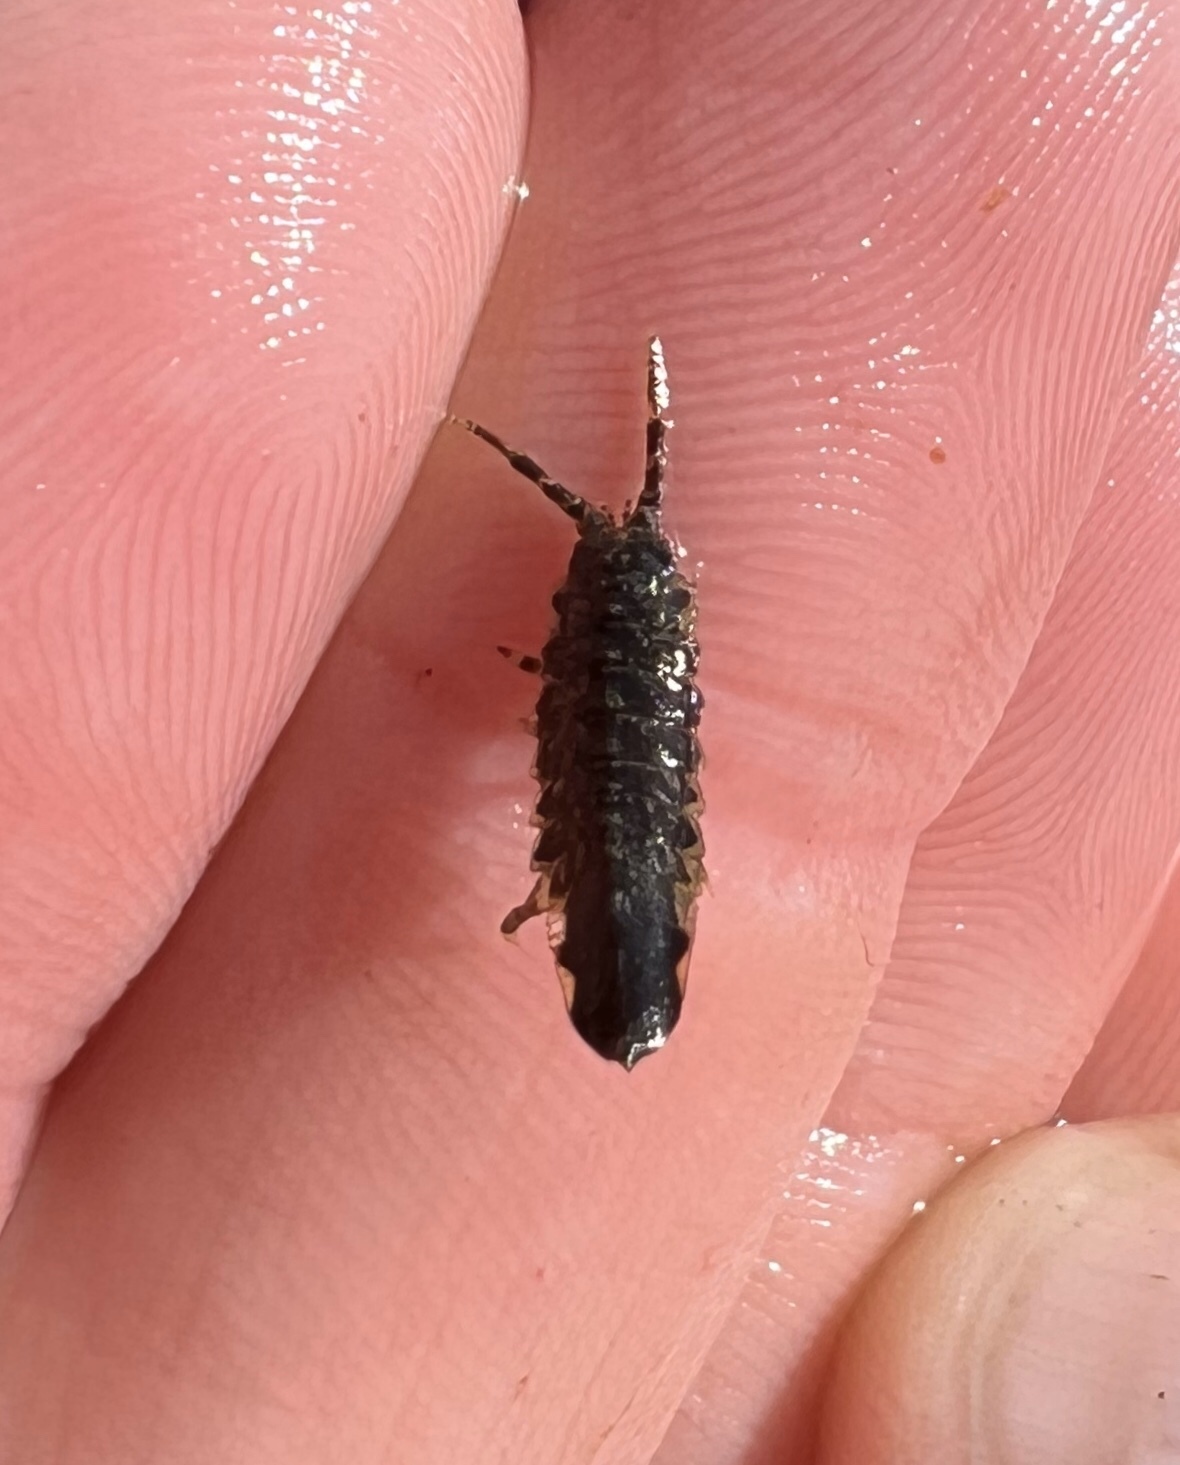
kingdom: Animalia
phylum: Arthropoda
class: Malacostraca
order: Isopoda
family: Idoteidae
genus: Idotea
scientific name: Idotea phosphorea
